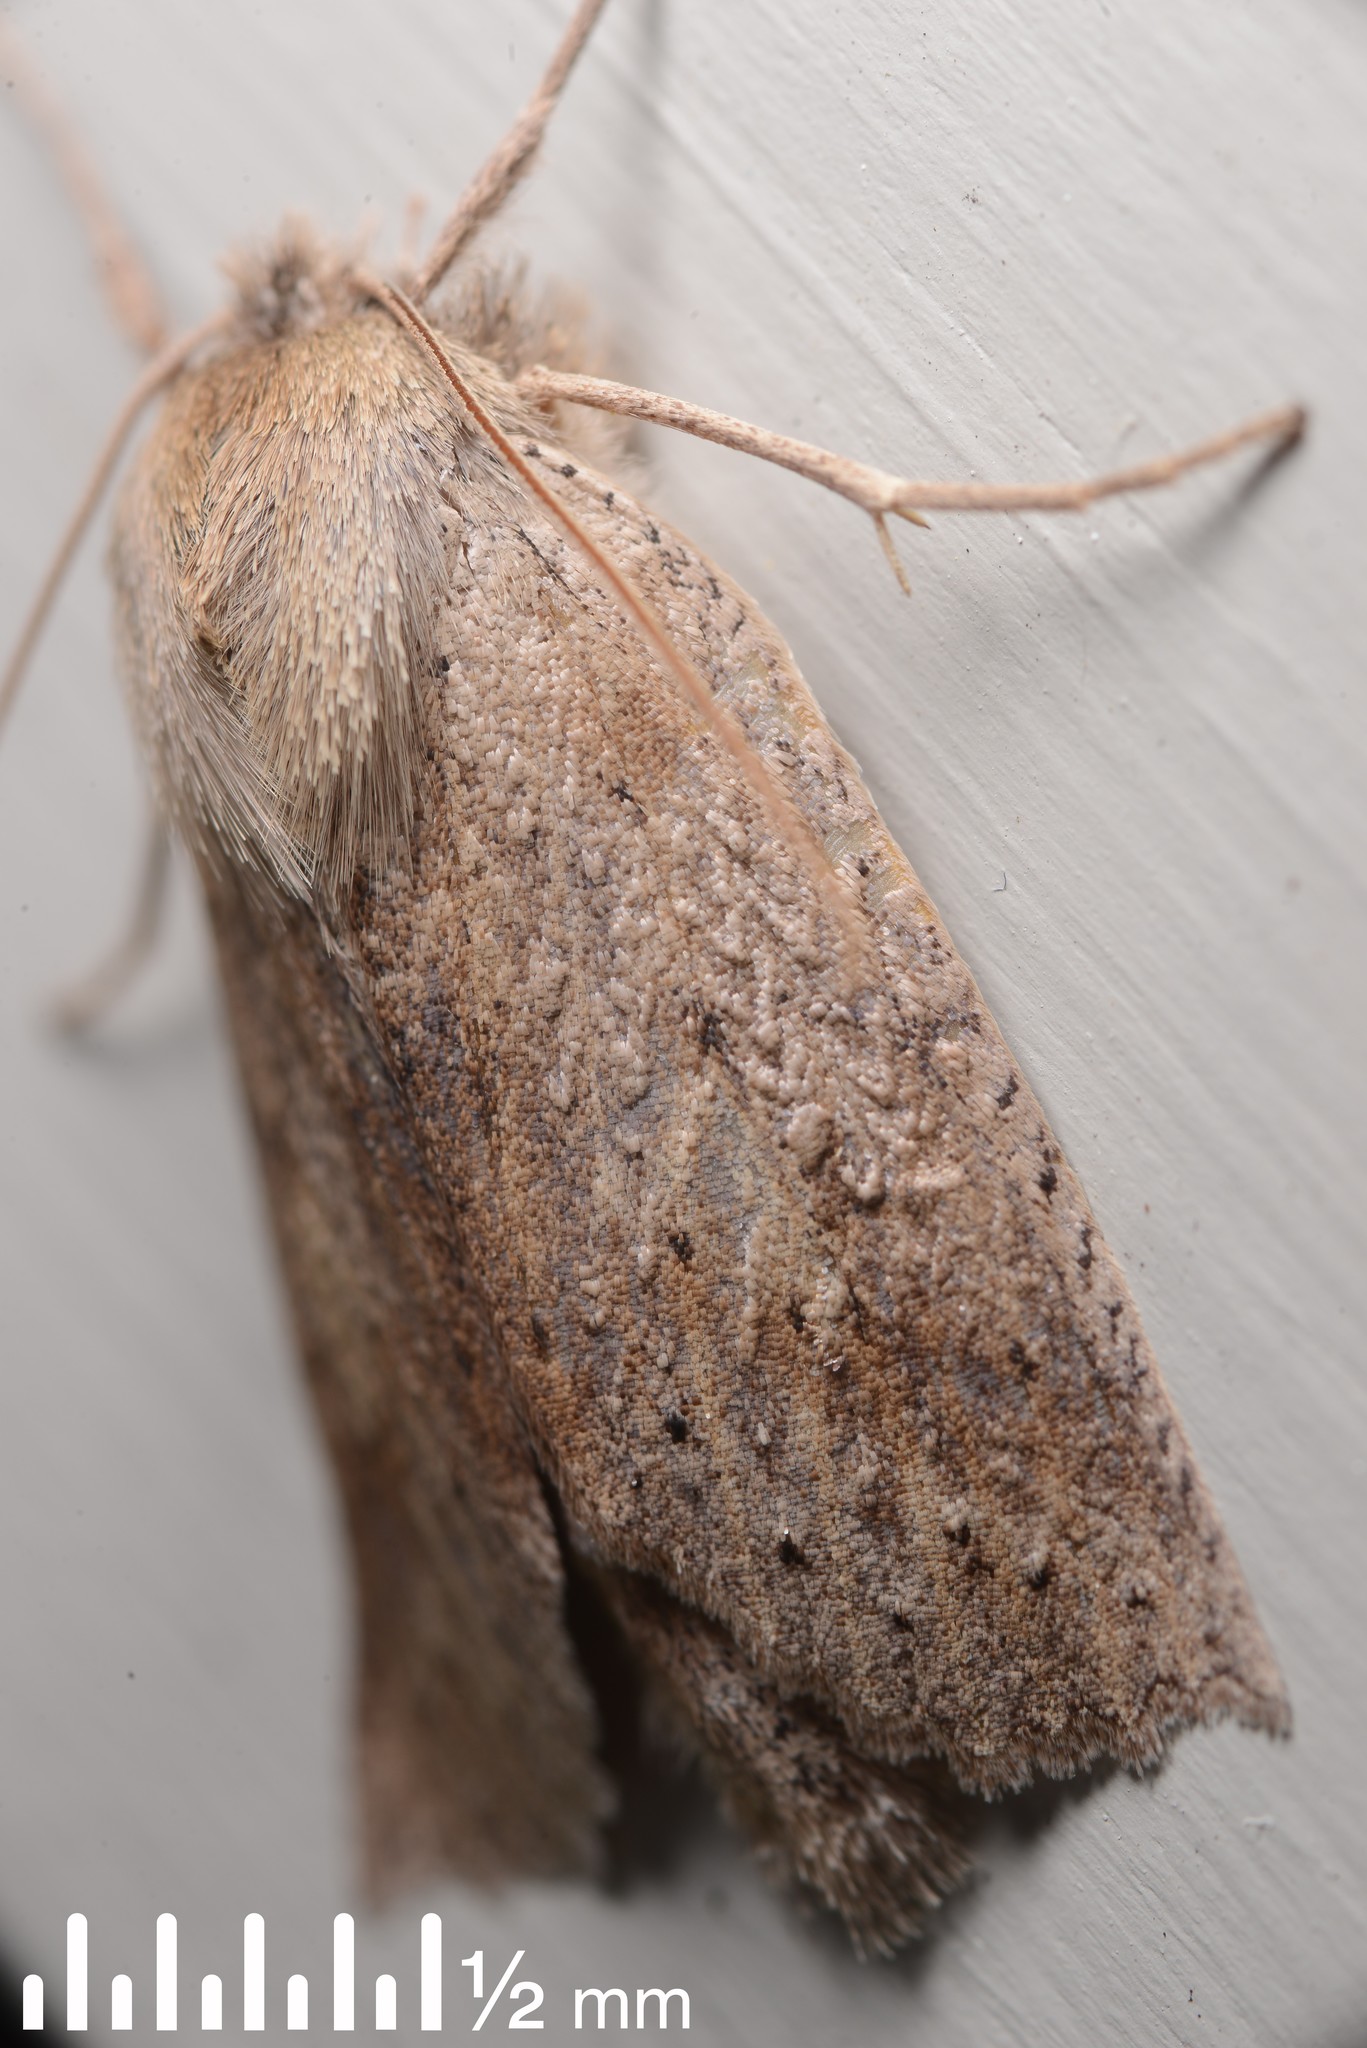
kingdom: Animalia
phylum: Arthropoda
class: Insecta
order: Lepidoptera
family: Geometridae
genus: Declana
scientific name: Declana leptomera
